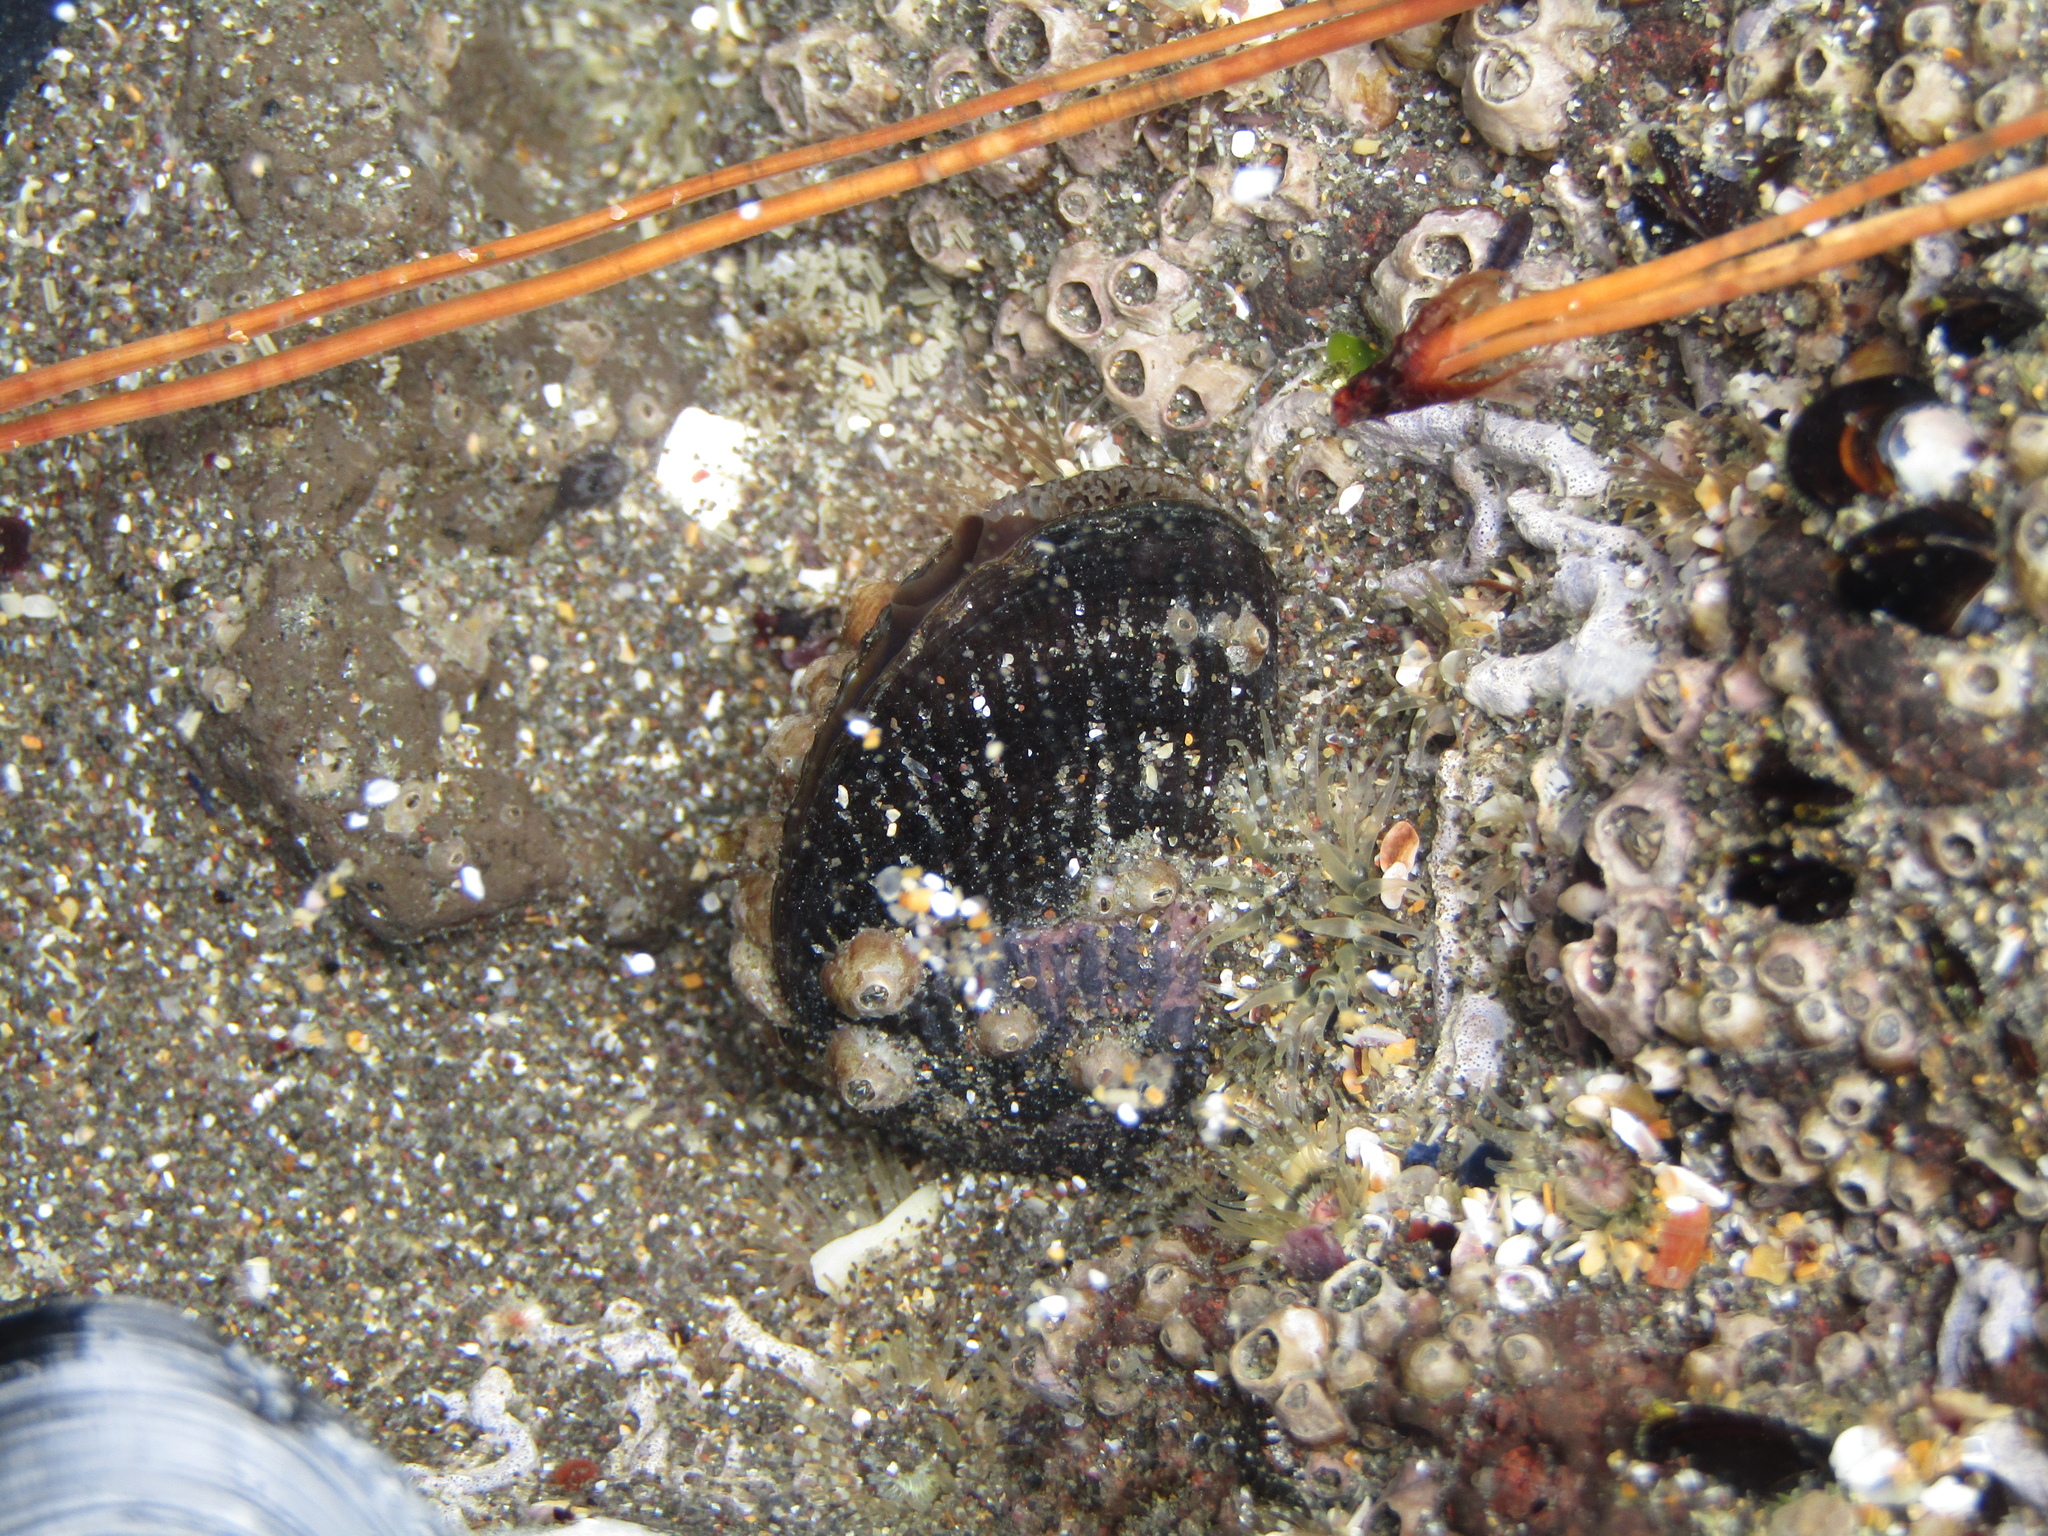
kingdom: Animalia
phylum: Mollusca
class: Bivalvia
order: Mytilida
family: Mytilidae
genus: Aulacomya
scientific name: Aulacomya maoriana
